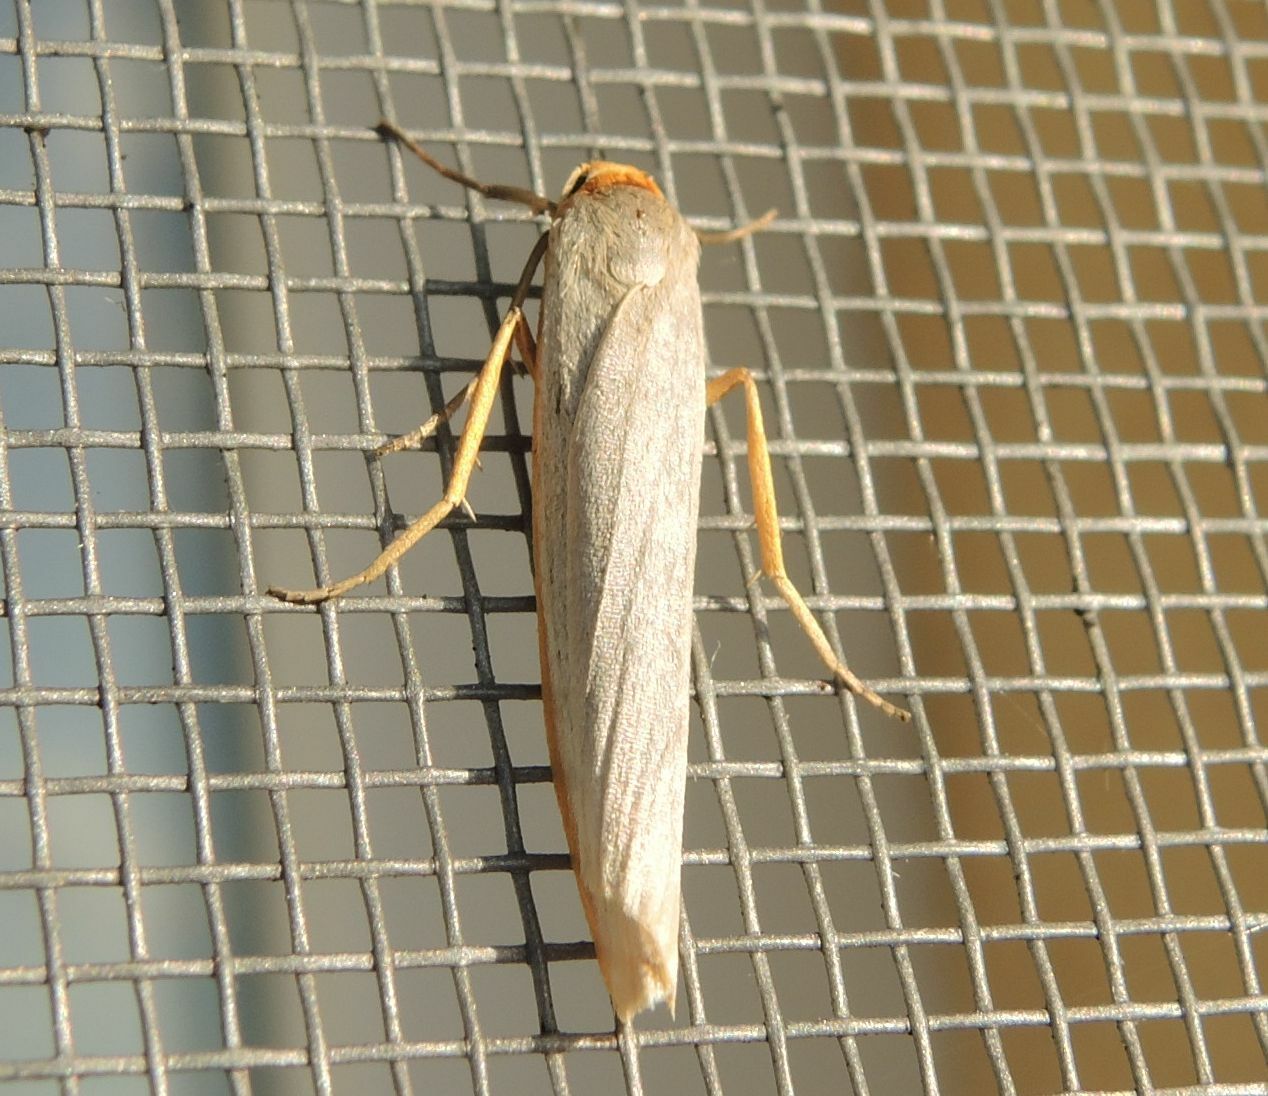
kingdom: Animalia
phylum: Arthropoda
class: Insecta
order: Lepidoptera
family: Erebidae
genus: Eilema
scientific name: Eilema caniola
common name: Hoary footman
